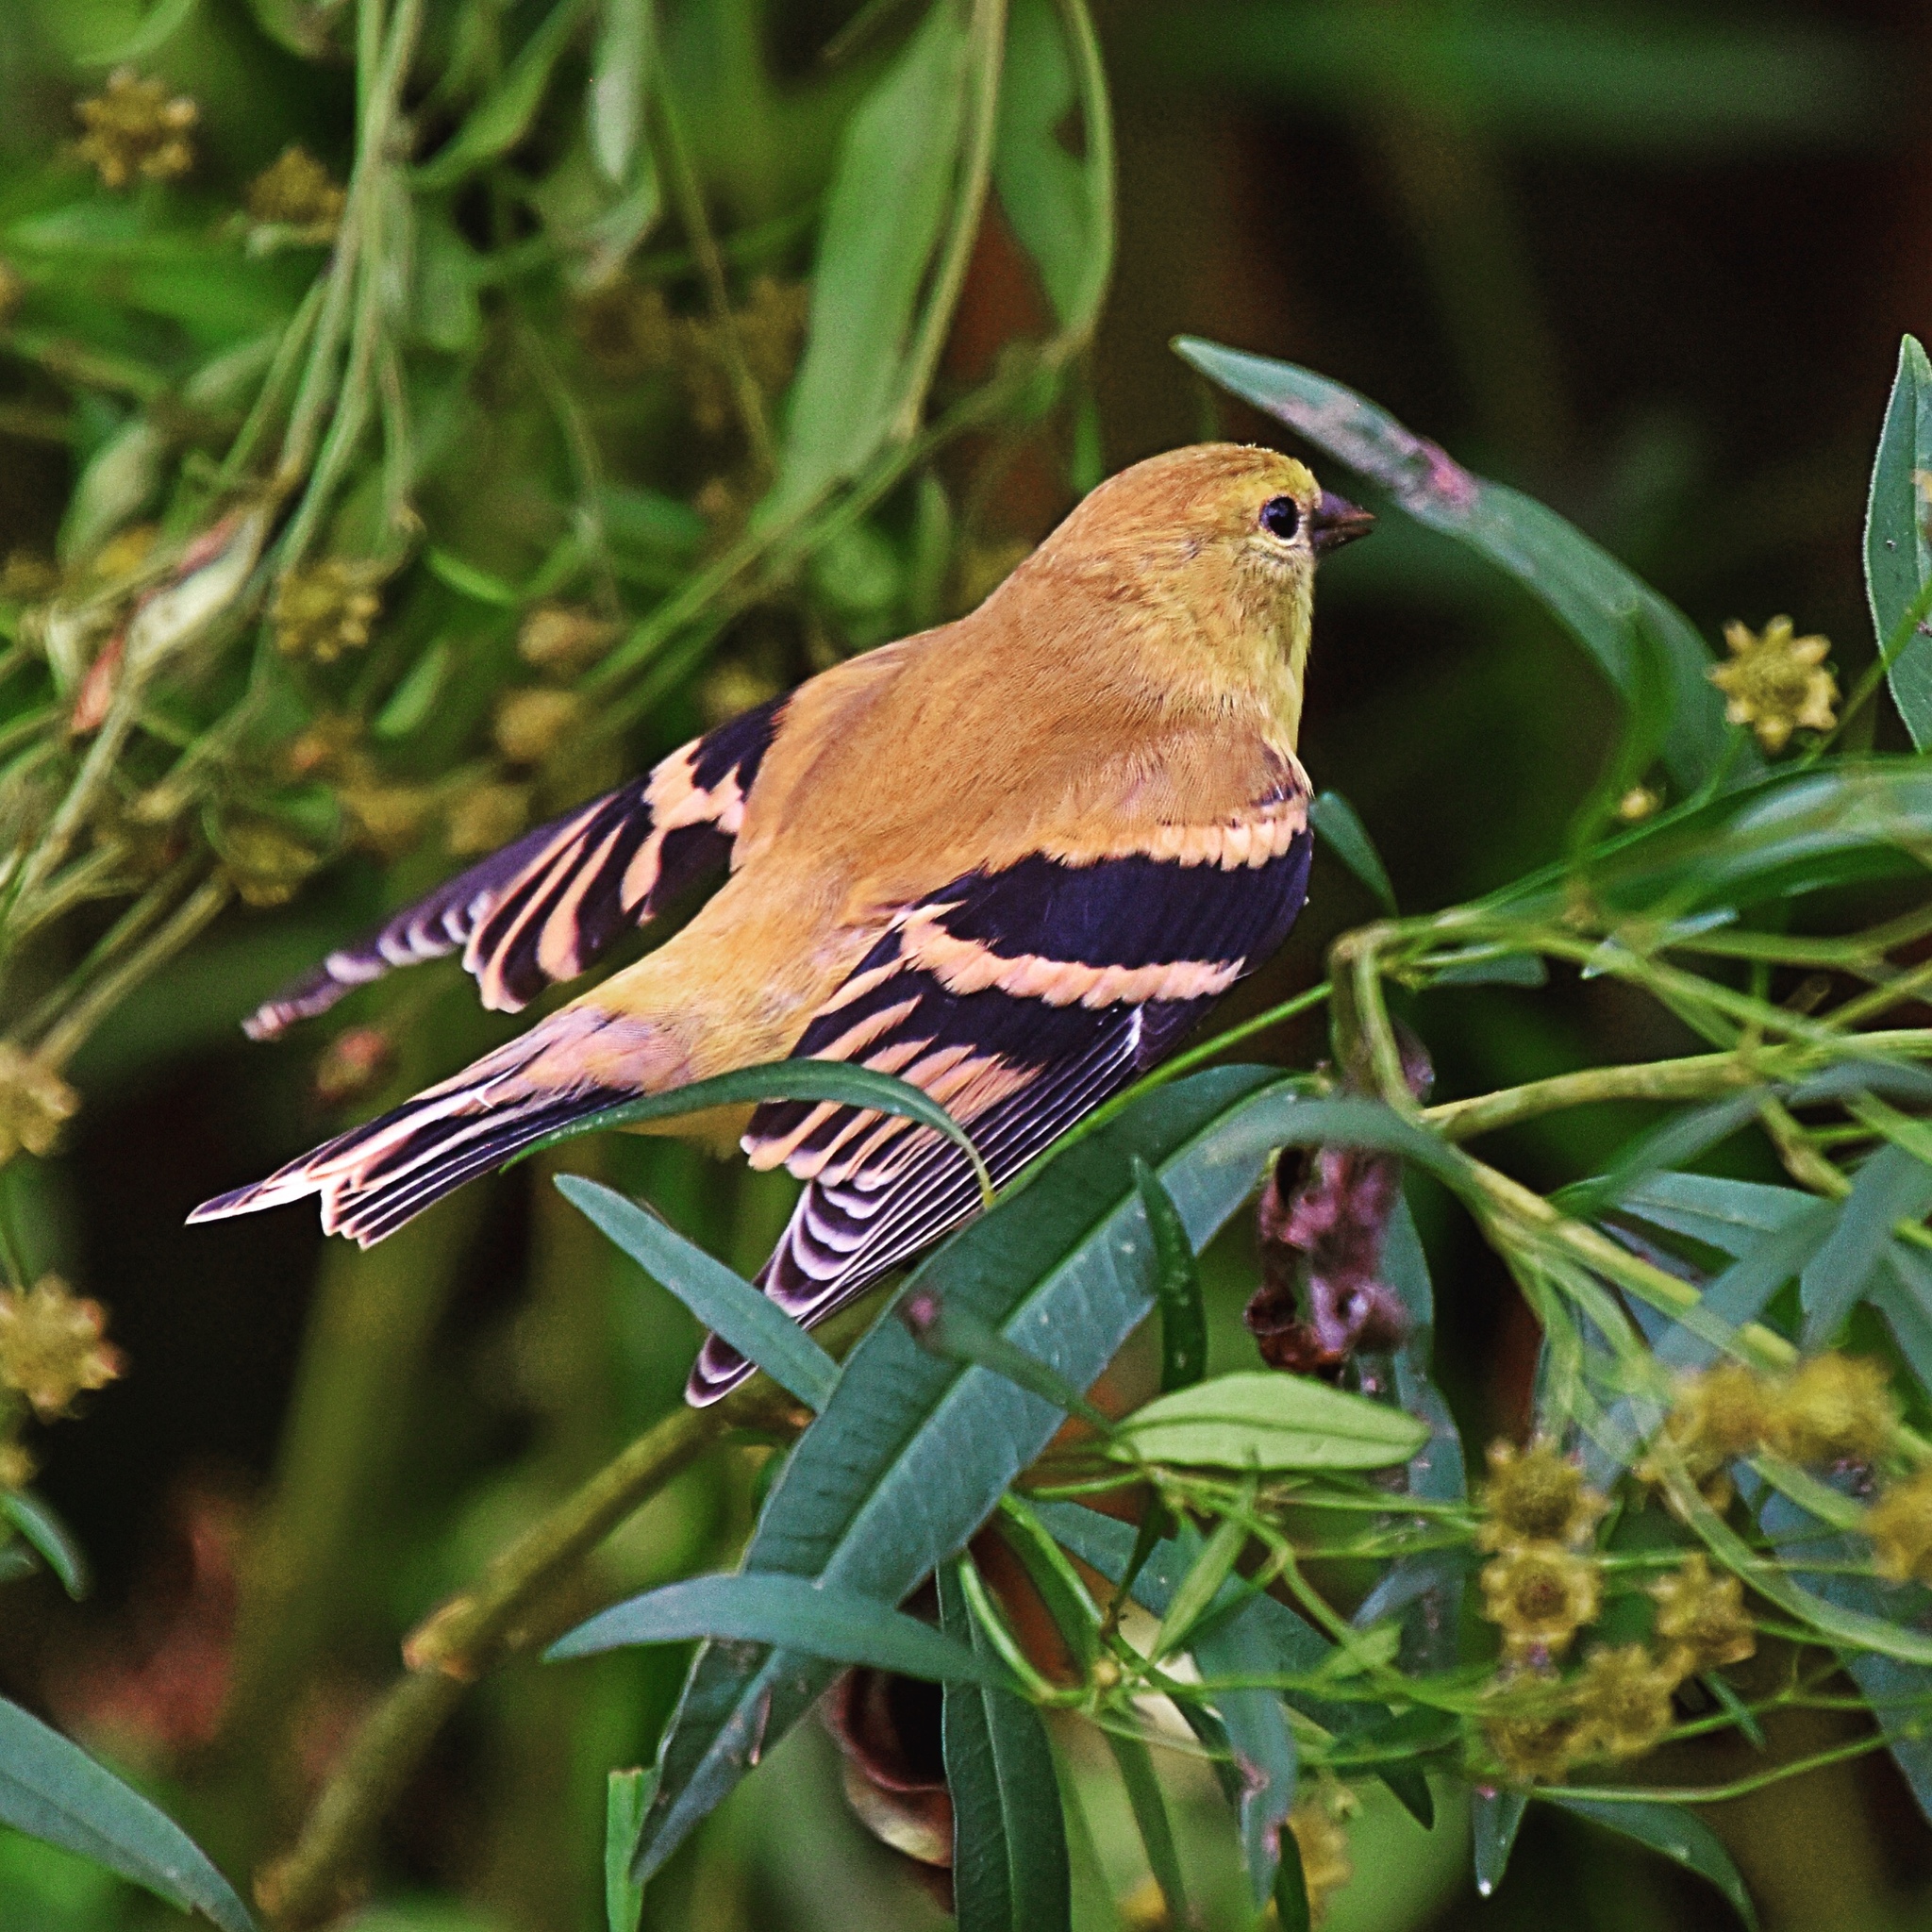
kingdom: Animalia
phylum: Chordata
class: Aves
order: Passeriformes
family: Fringillidae
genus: Spinus
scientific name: Spinus tristis
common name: American goldfinch
